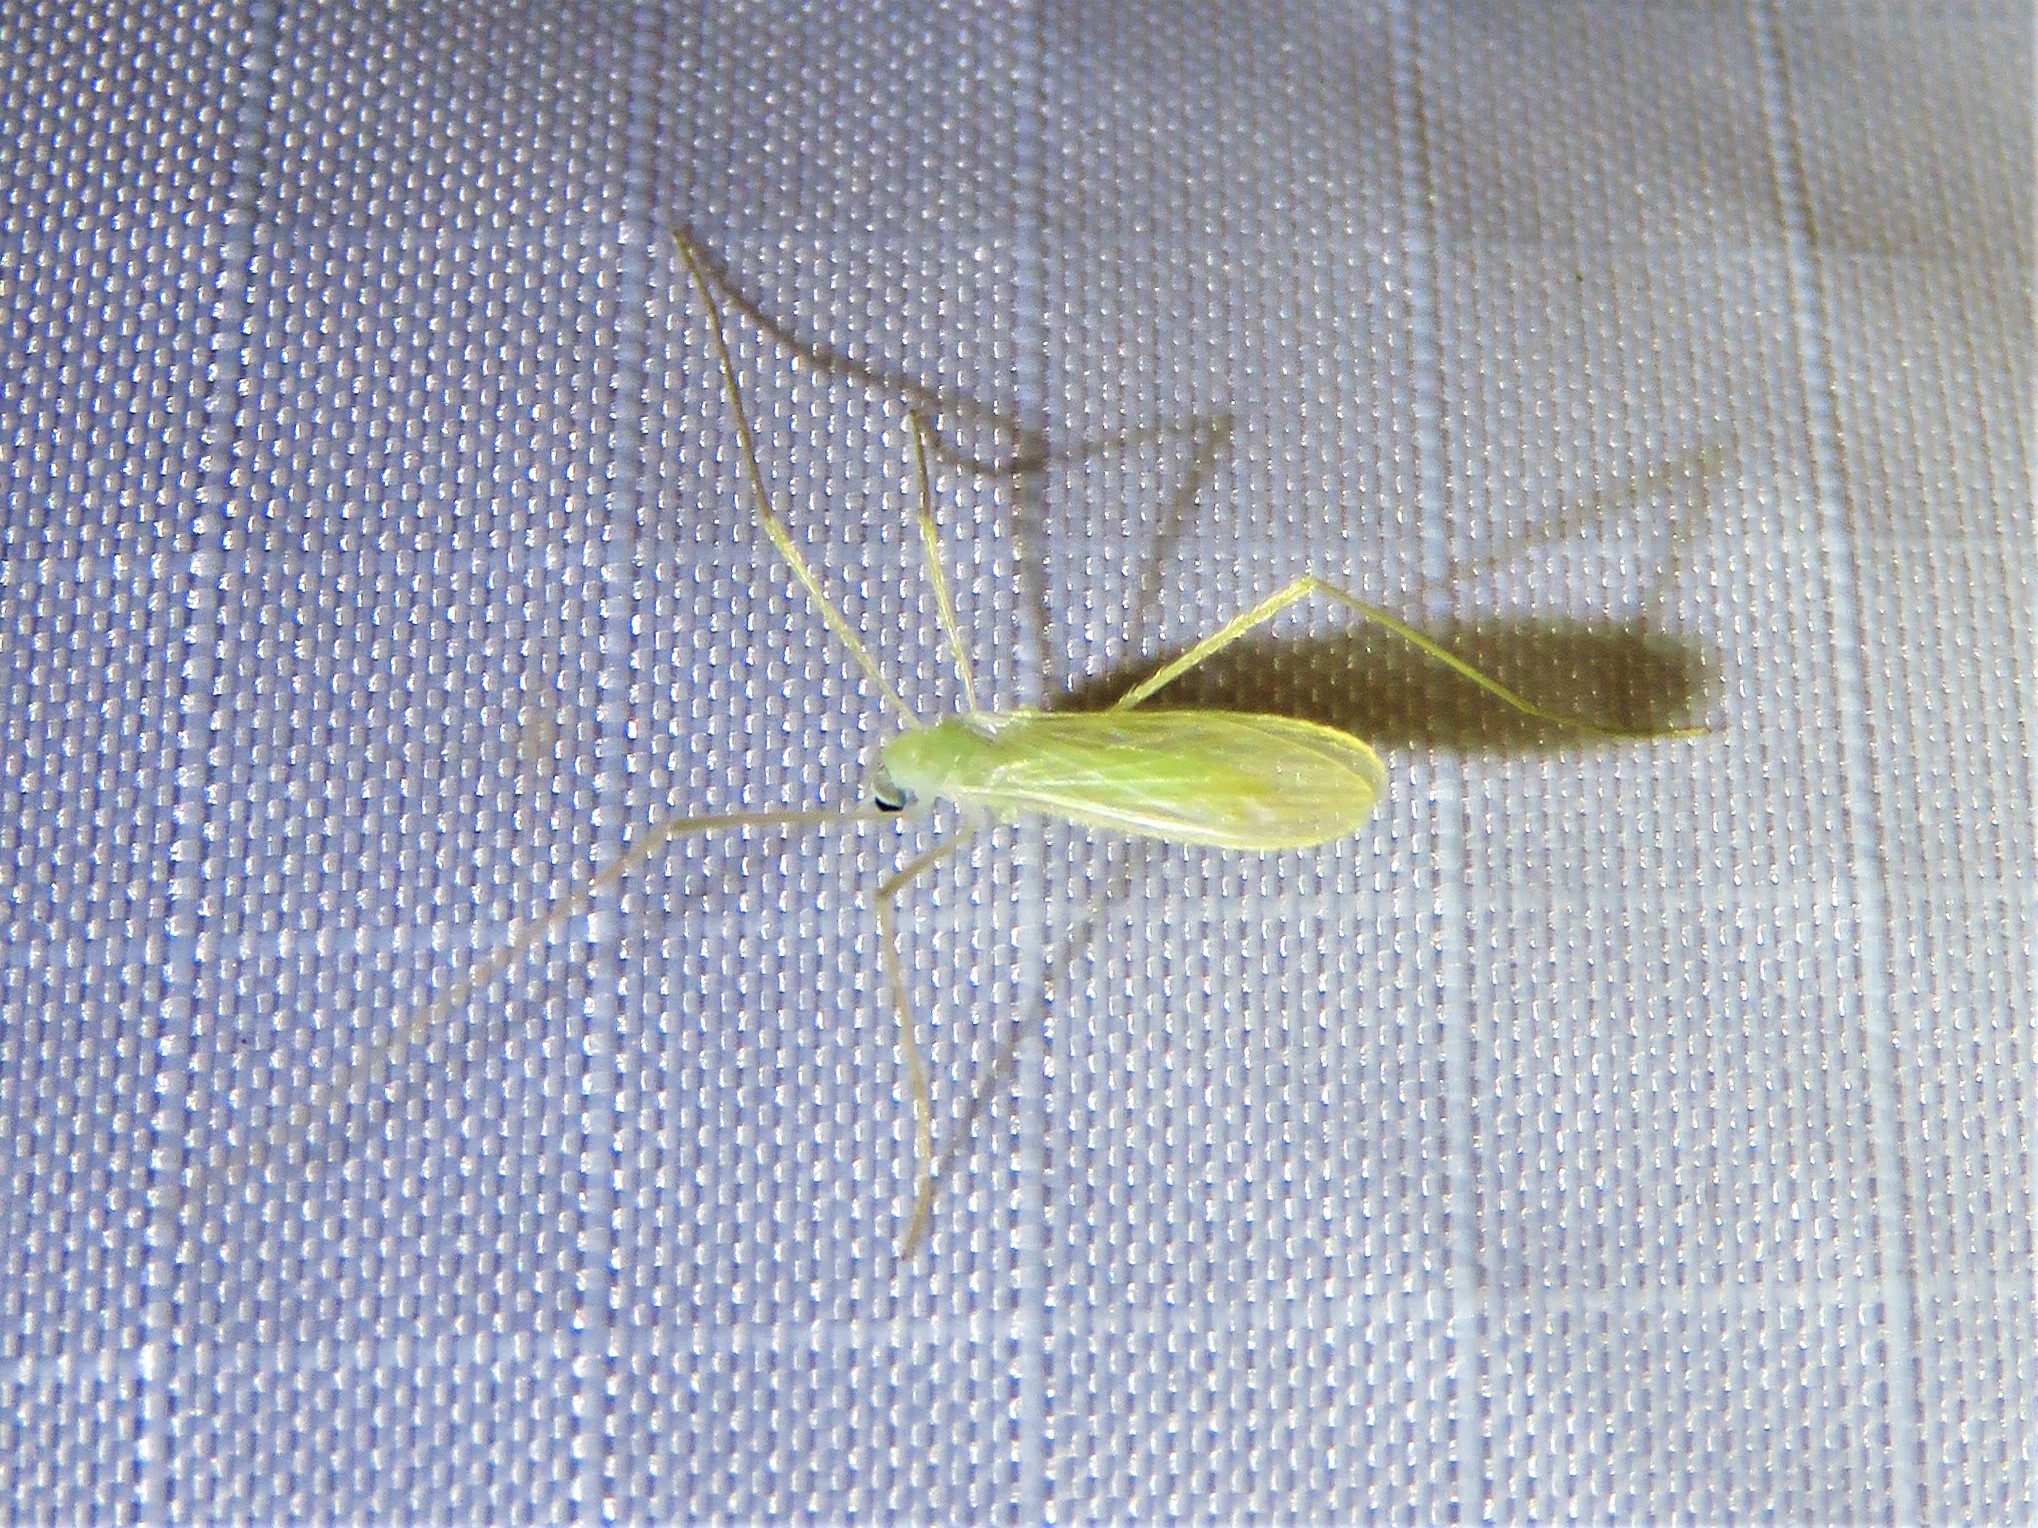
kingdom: Animalia
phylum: Arthropoda
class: Insecta
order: Diptera
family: Limoniidae
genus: Erioptera
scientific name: Erioptera
